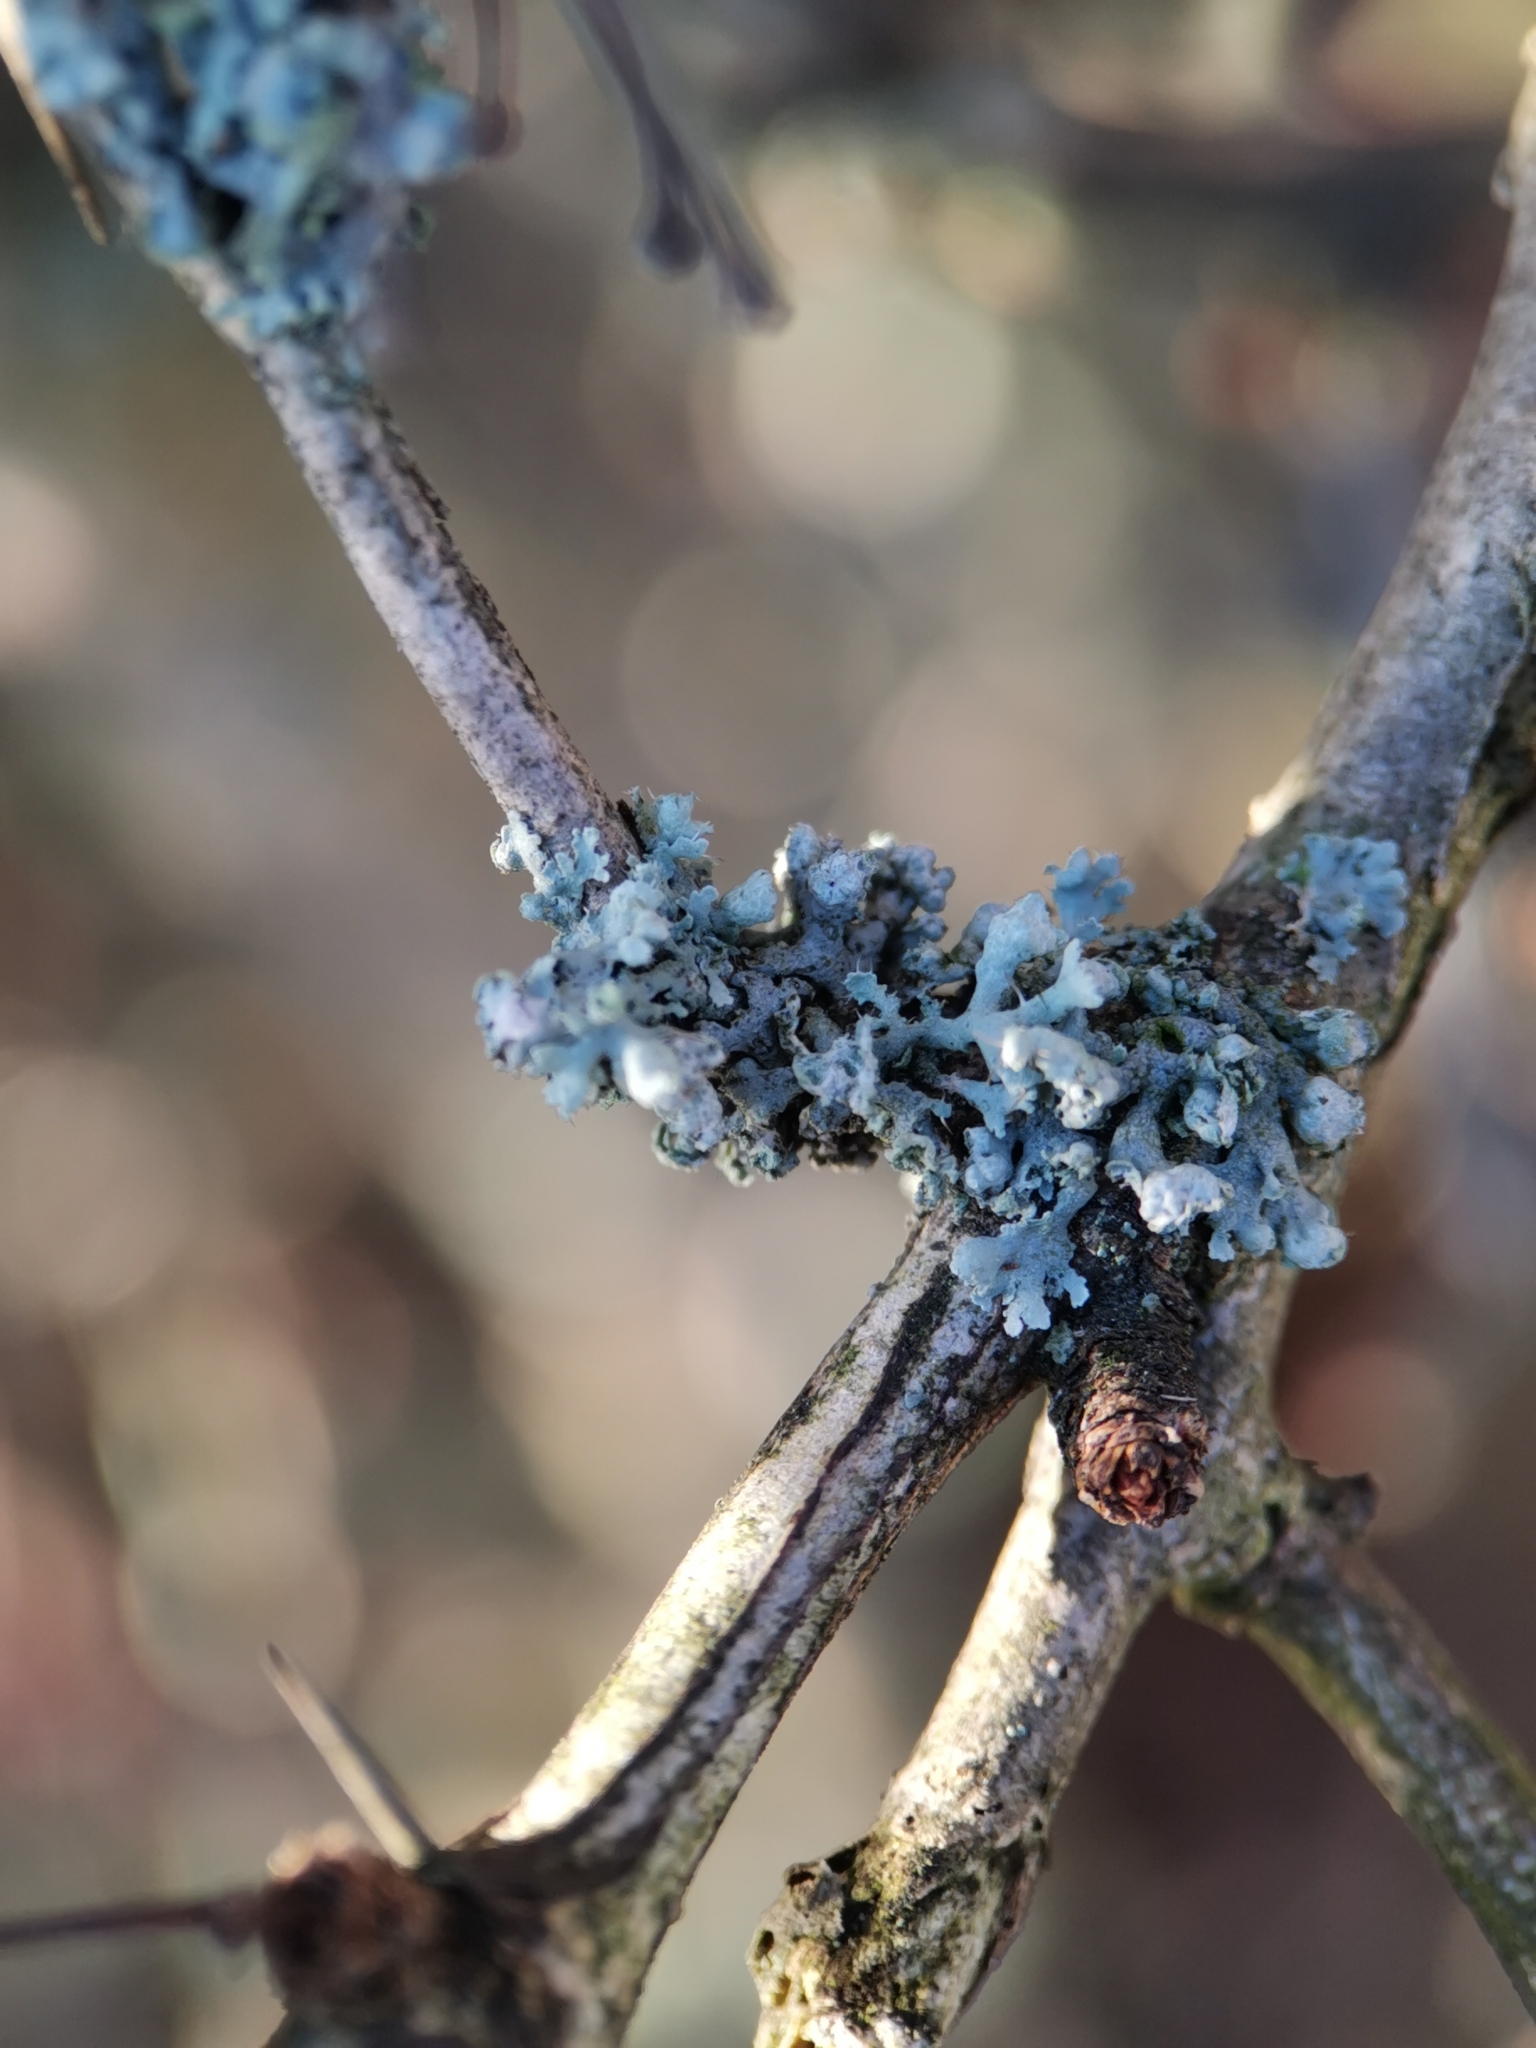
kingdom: Fungi
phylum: Ascomycota
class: Lecanoromycetes
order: Caliciales
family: Physciaceae
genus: Physcia
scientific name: Physcia adscendens
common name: Hooded rosette lichen
